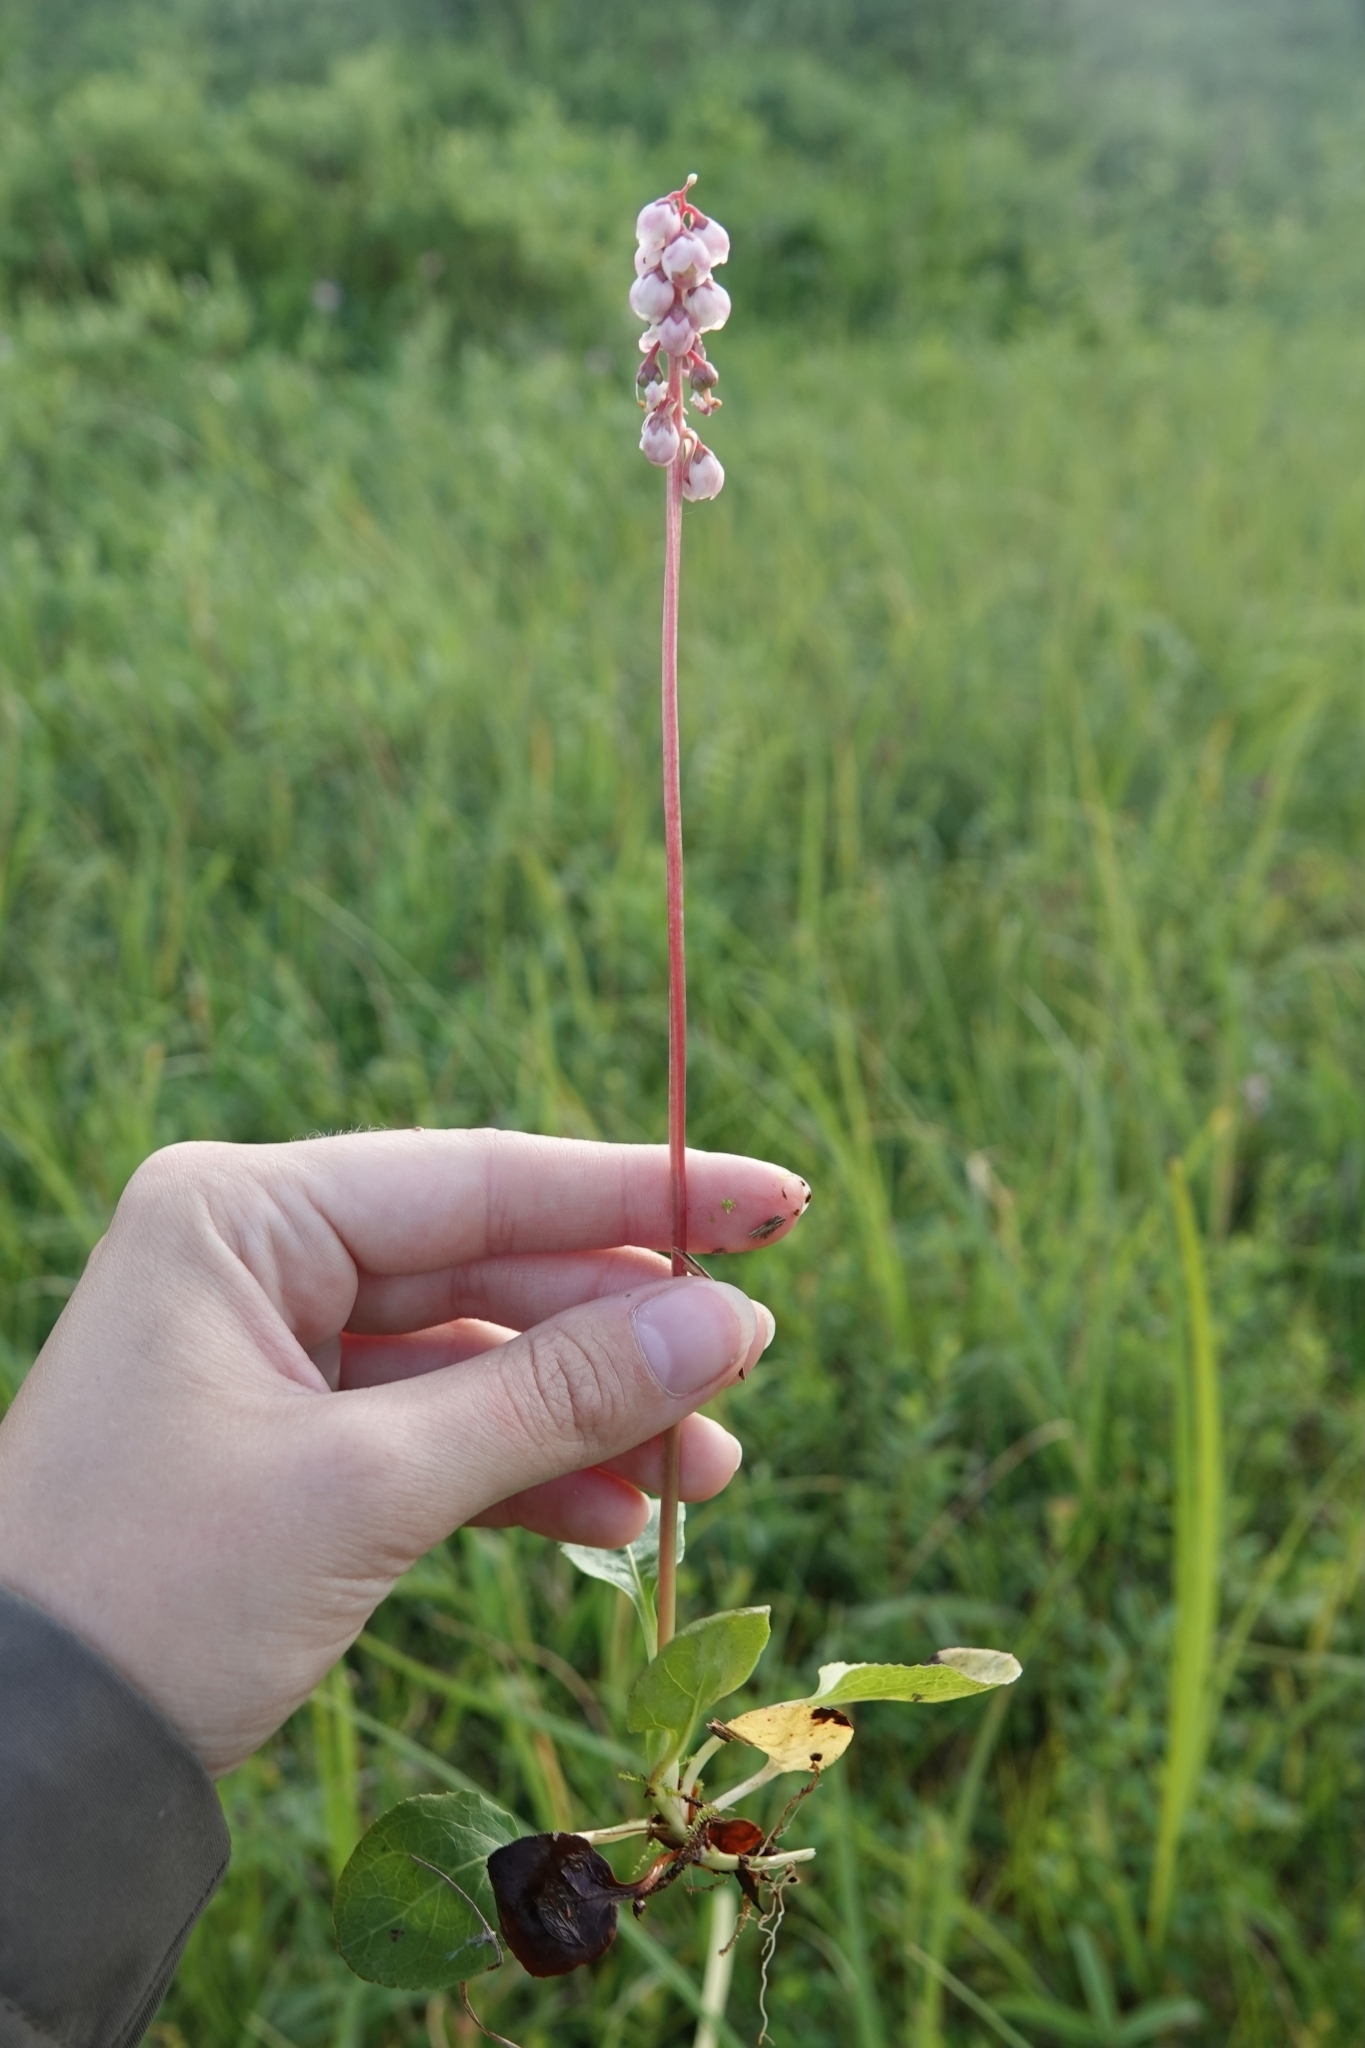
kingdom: Plantae
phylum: Tracheophyta
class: Magnoliopsida
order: Ericales
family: Ericaceae
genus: Pyrola
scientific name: Pyrola minor
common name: Common wintergreen
